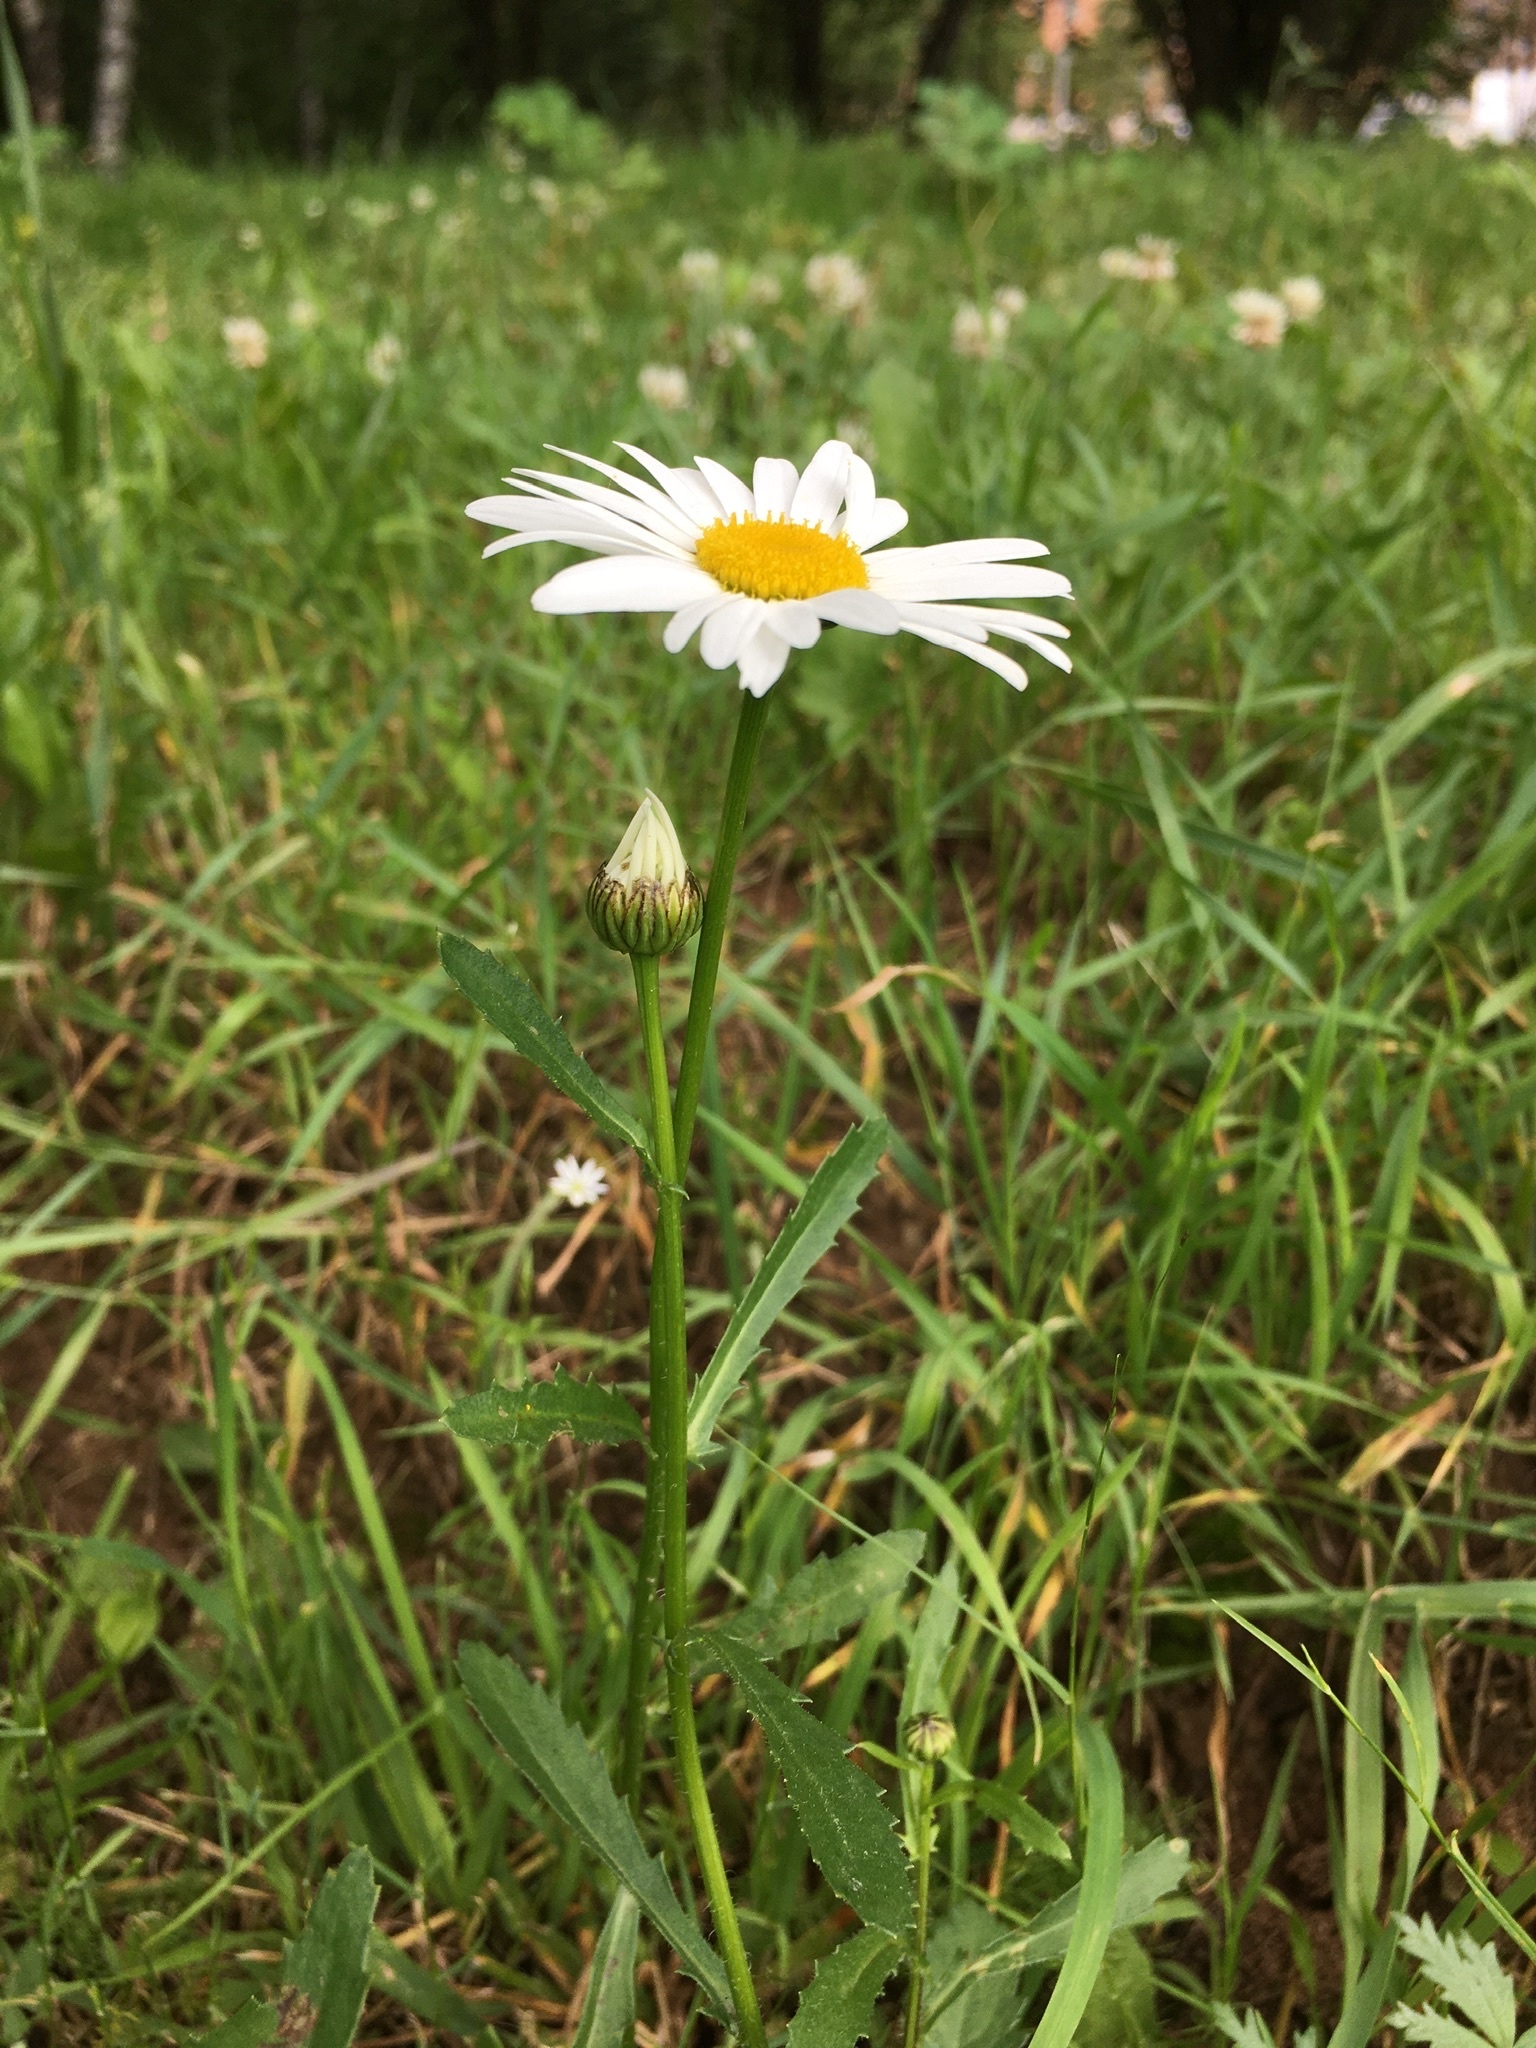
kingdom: Plantae
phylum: Tracheophyta
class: Magnoliopsida
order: Asterales
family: Asteraceae
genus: Leucanthemum
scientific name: Leucanthemum vulgare
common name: Oxeye daisy
